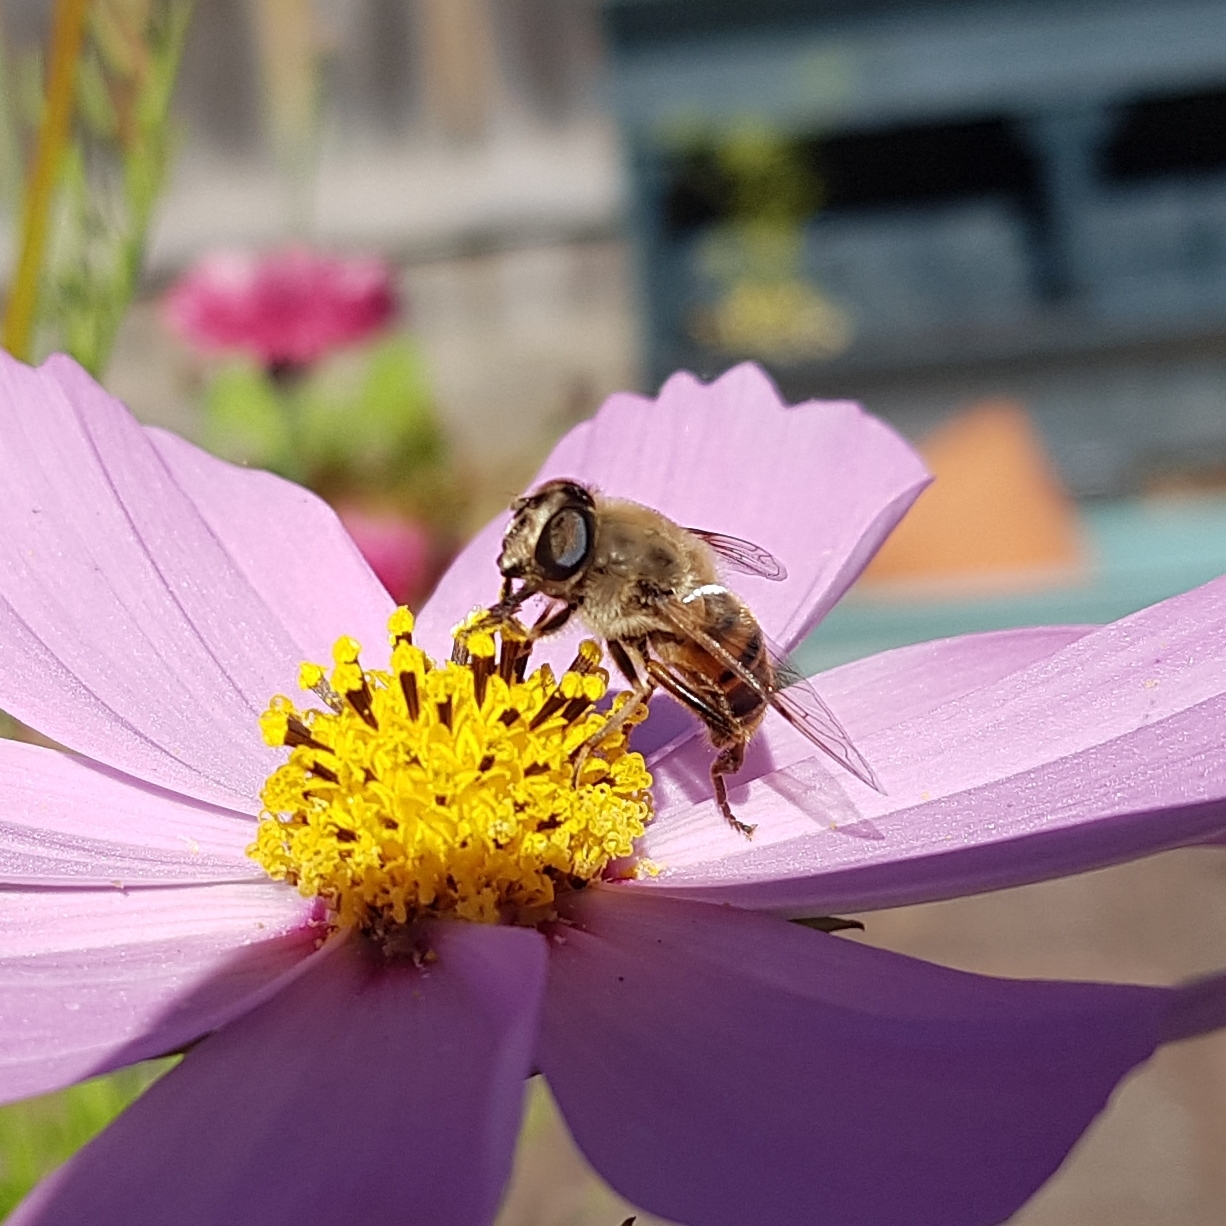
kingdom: Animalia
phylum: Arthropoda
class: Insecta
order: Diptera
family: Syrphidae
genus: Eristalis
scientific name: Eristalis tenax
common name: Drone fly
